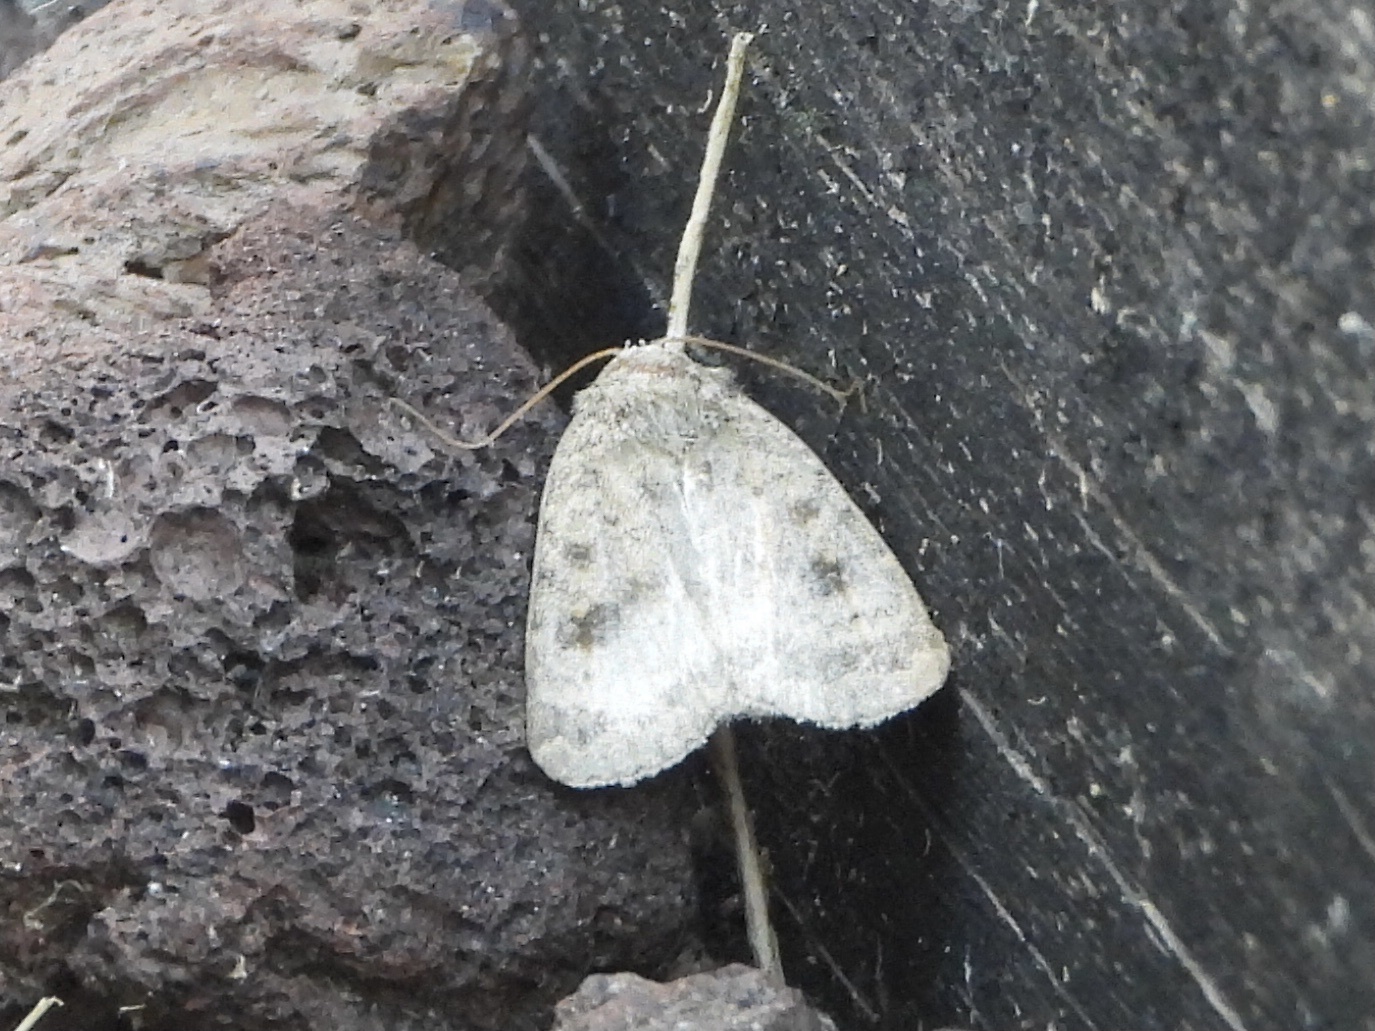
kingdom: Animalia
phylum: Arthropoda
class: Insecta
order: Lepidoptera
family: Noctuidae
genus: Caradrina
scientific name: Caradrina morpheus
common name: Mottled rustic
